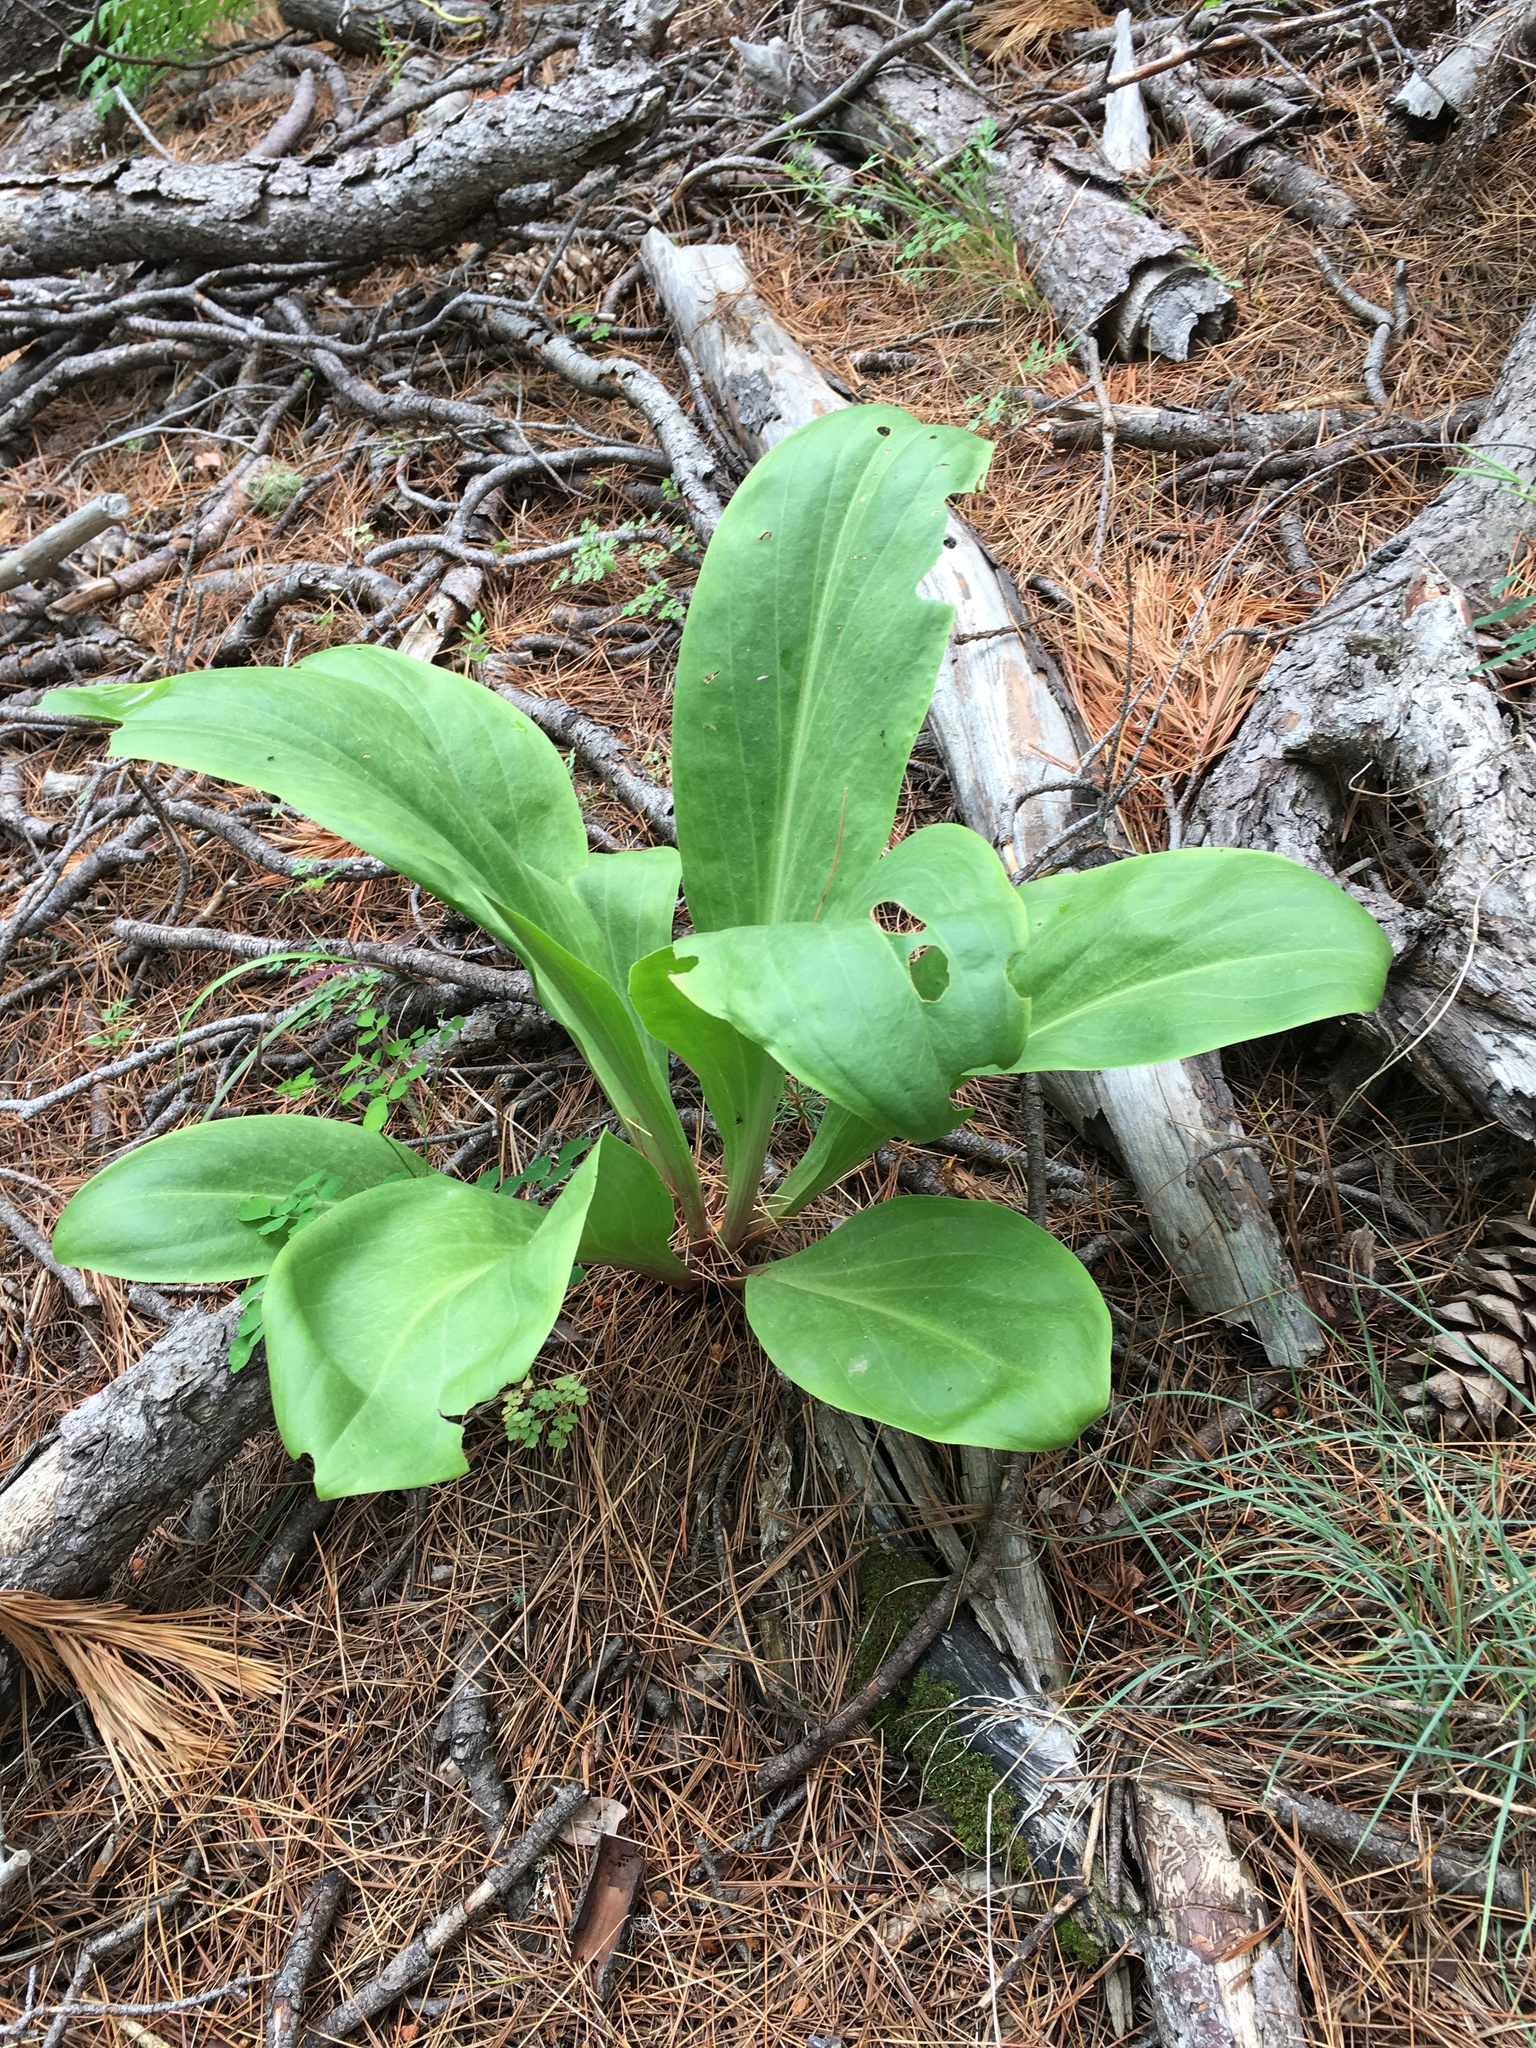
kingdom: Plantae
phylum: Tracheophyta
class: Magnoliopsida
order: Gentianales
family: Gentianaceae
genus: Frasera
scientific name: Frasera speciosa
